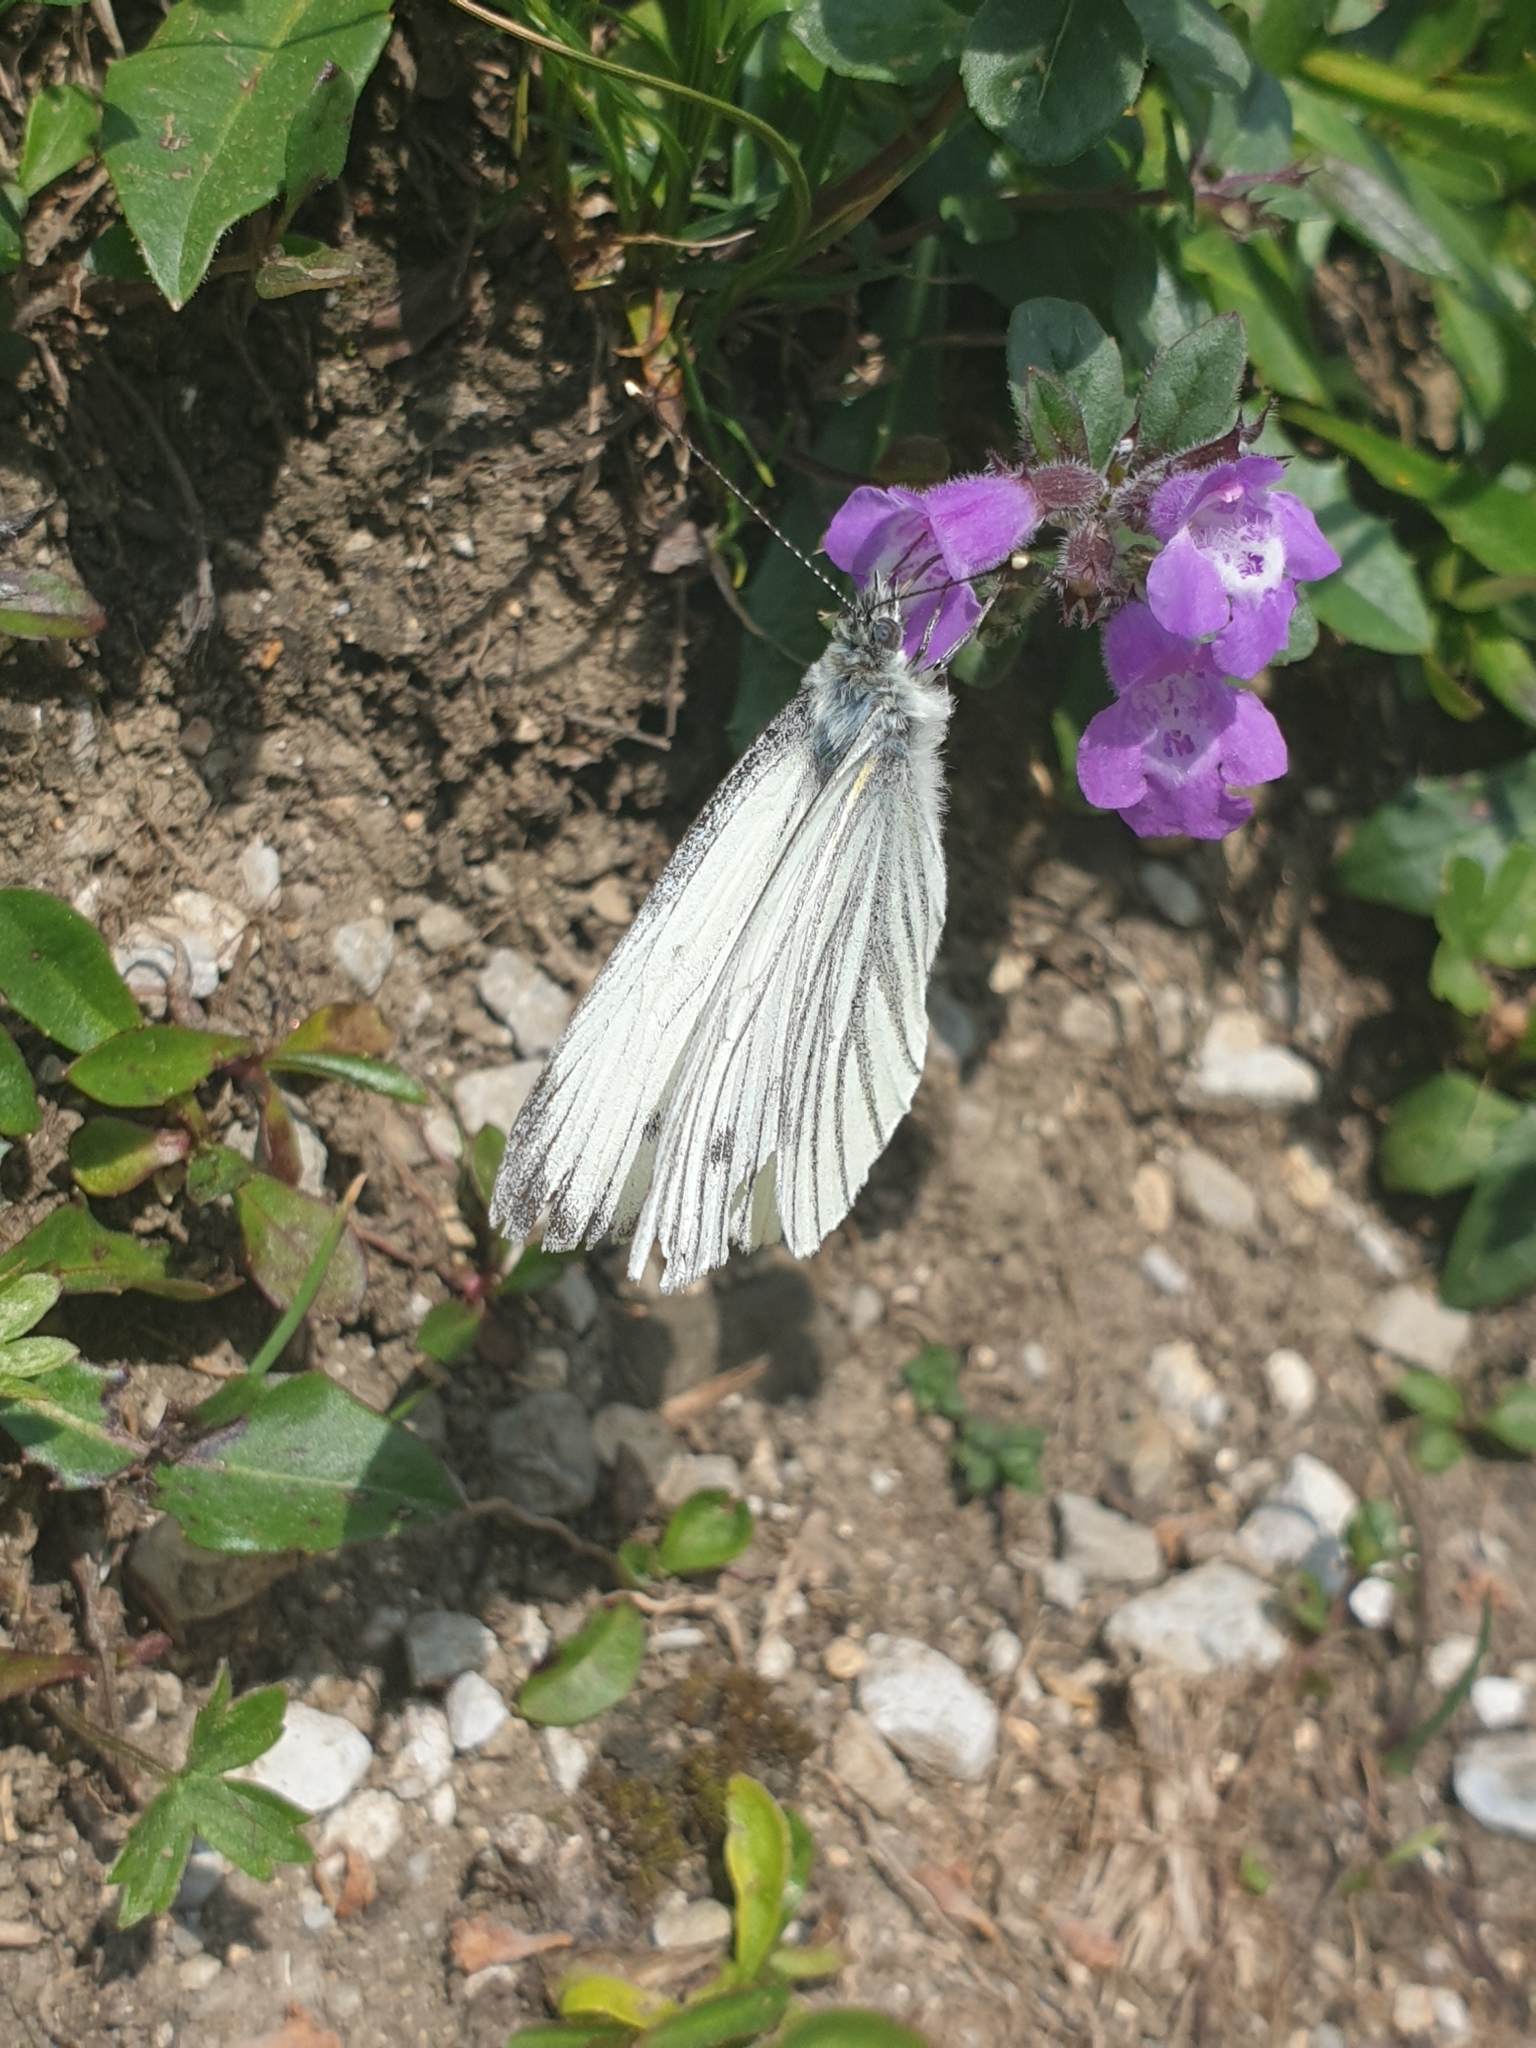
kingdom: Animalia
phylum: Arthropoda
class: Insecta
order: Lepidoptera
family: Pieridae
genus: Pieris
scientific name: Pieris napi
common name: Green-veined white
